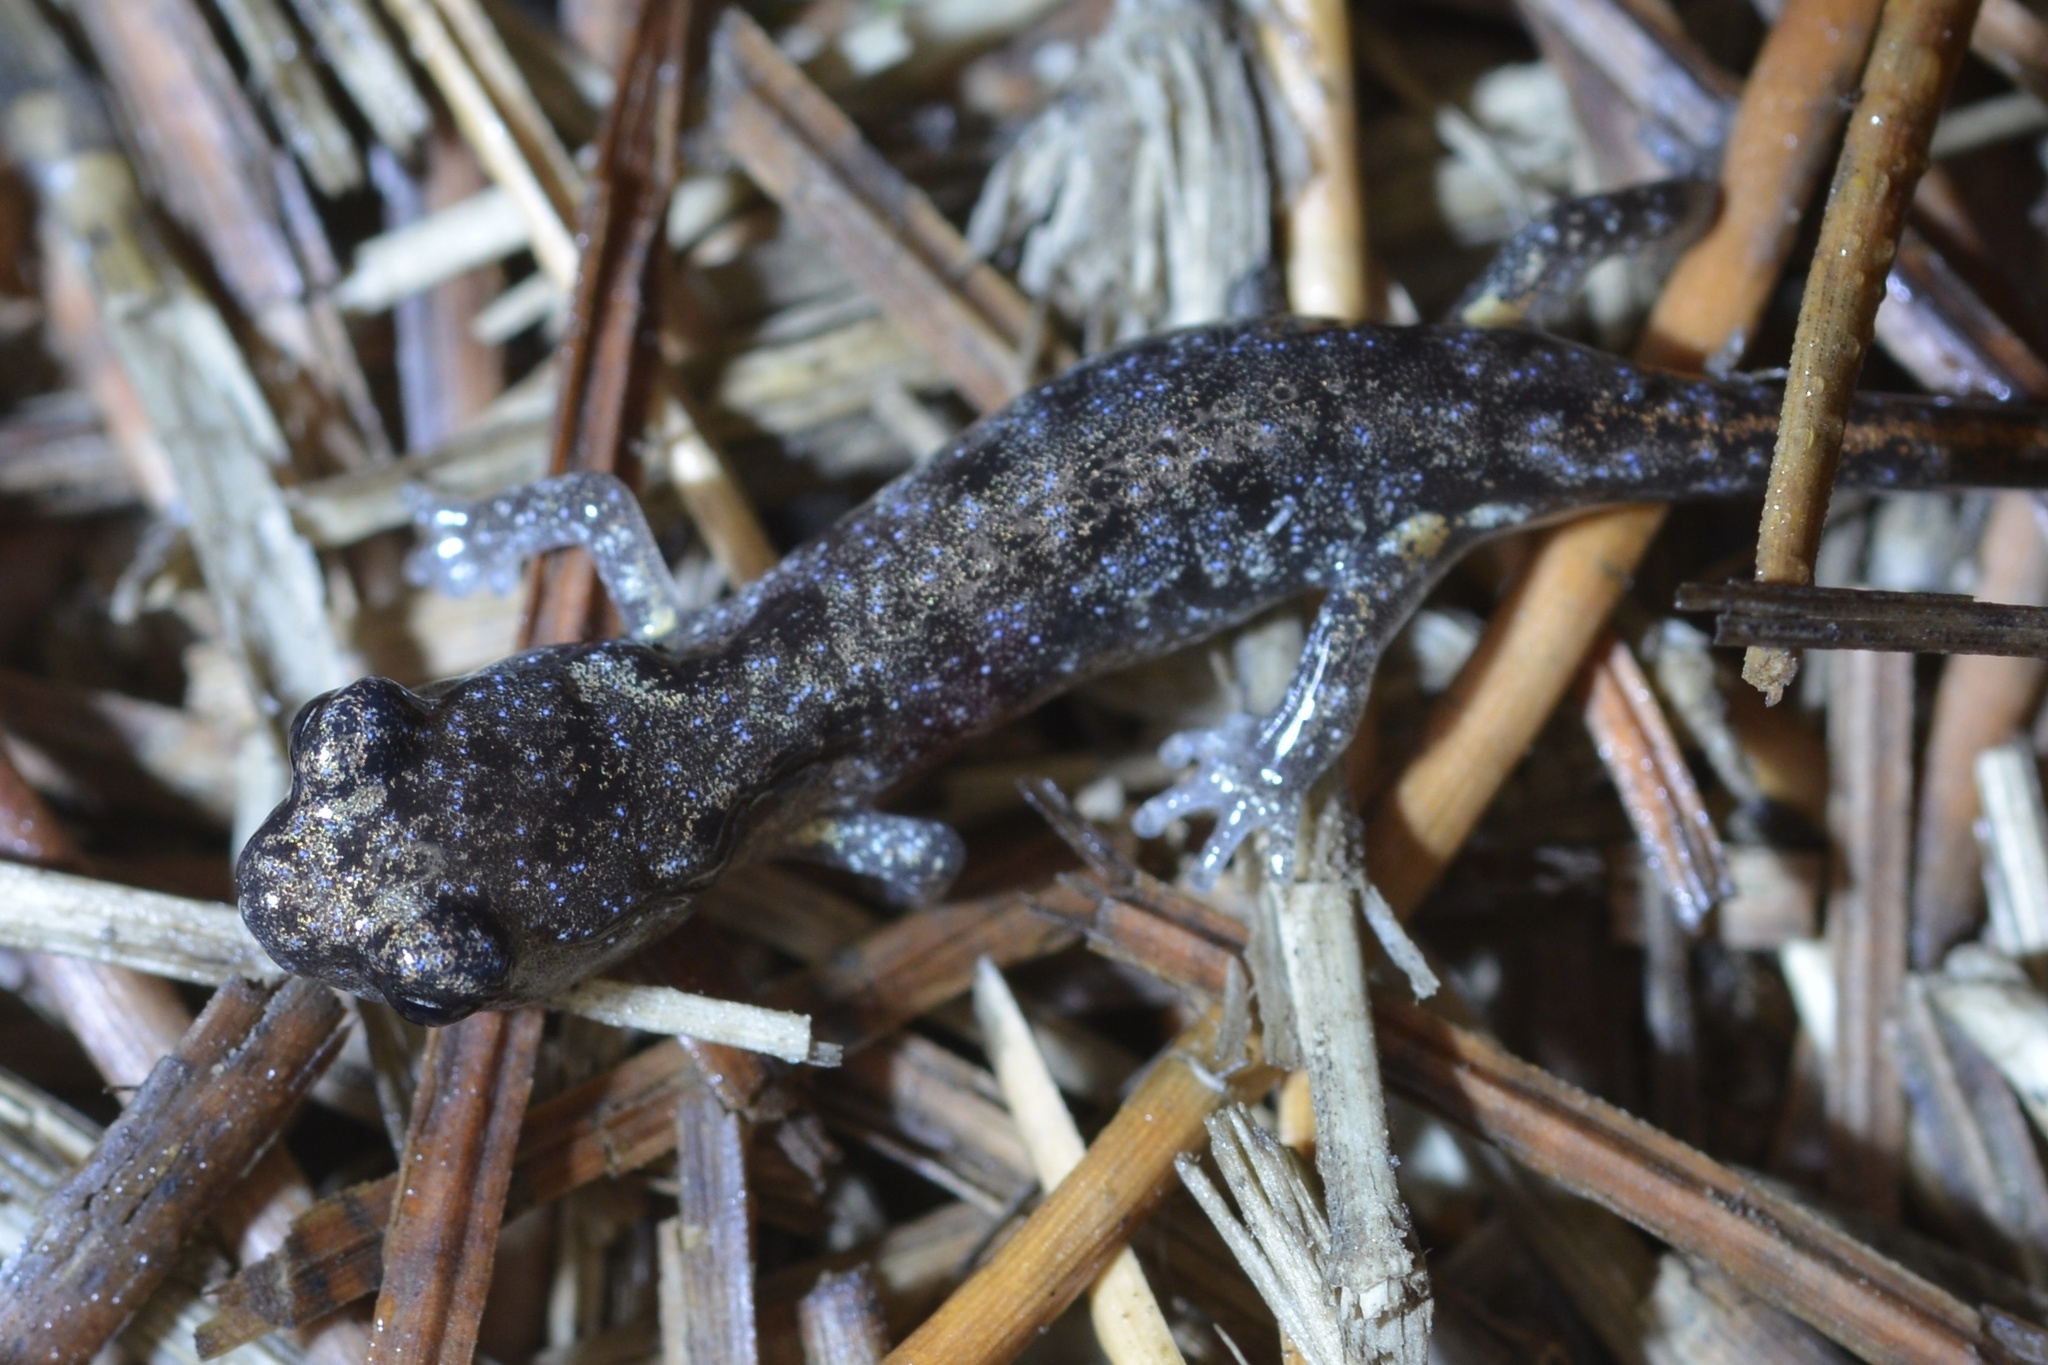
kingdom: Animalia
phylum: Chordata
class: Amphibia
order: Caudata
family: Plethodontidae
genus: Aneides
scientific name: Aneides lugubris
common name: Arboreal salamander
